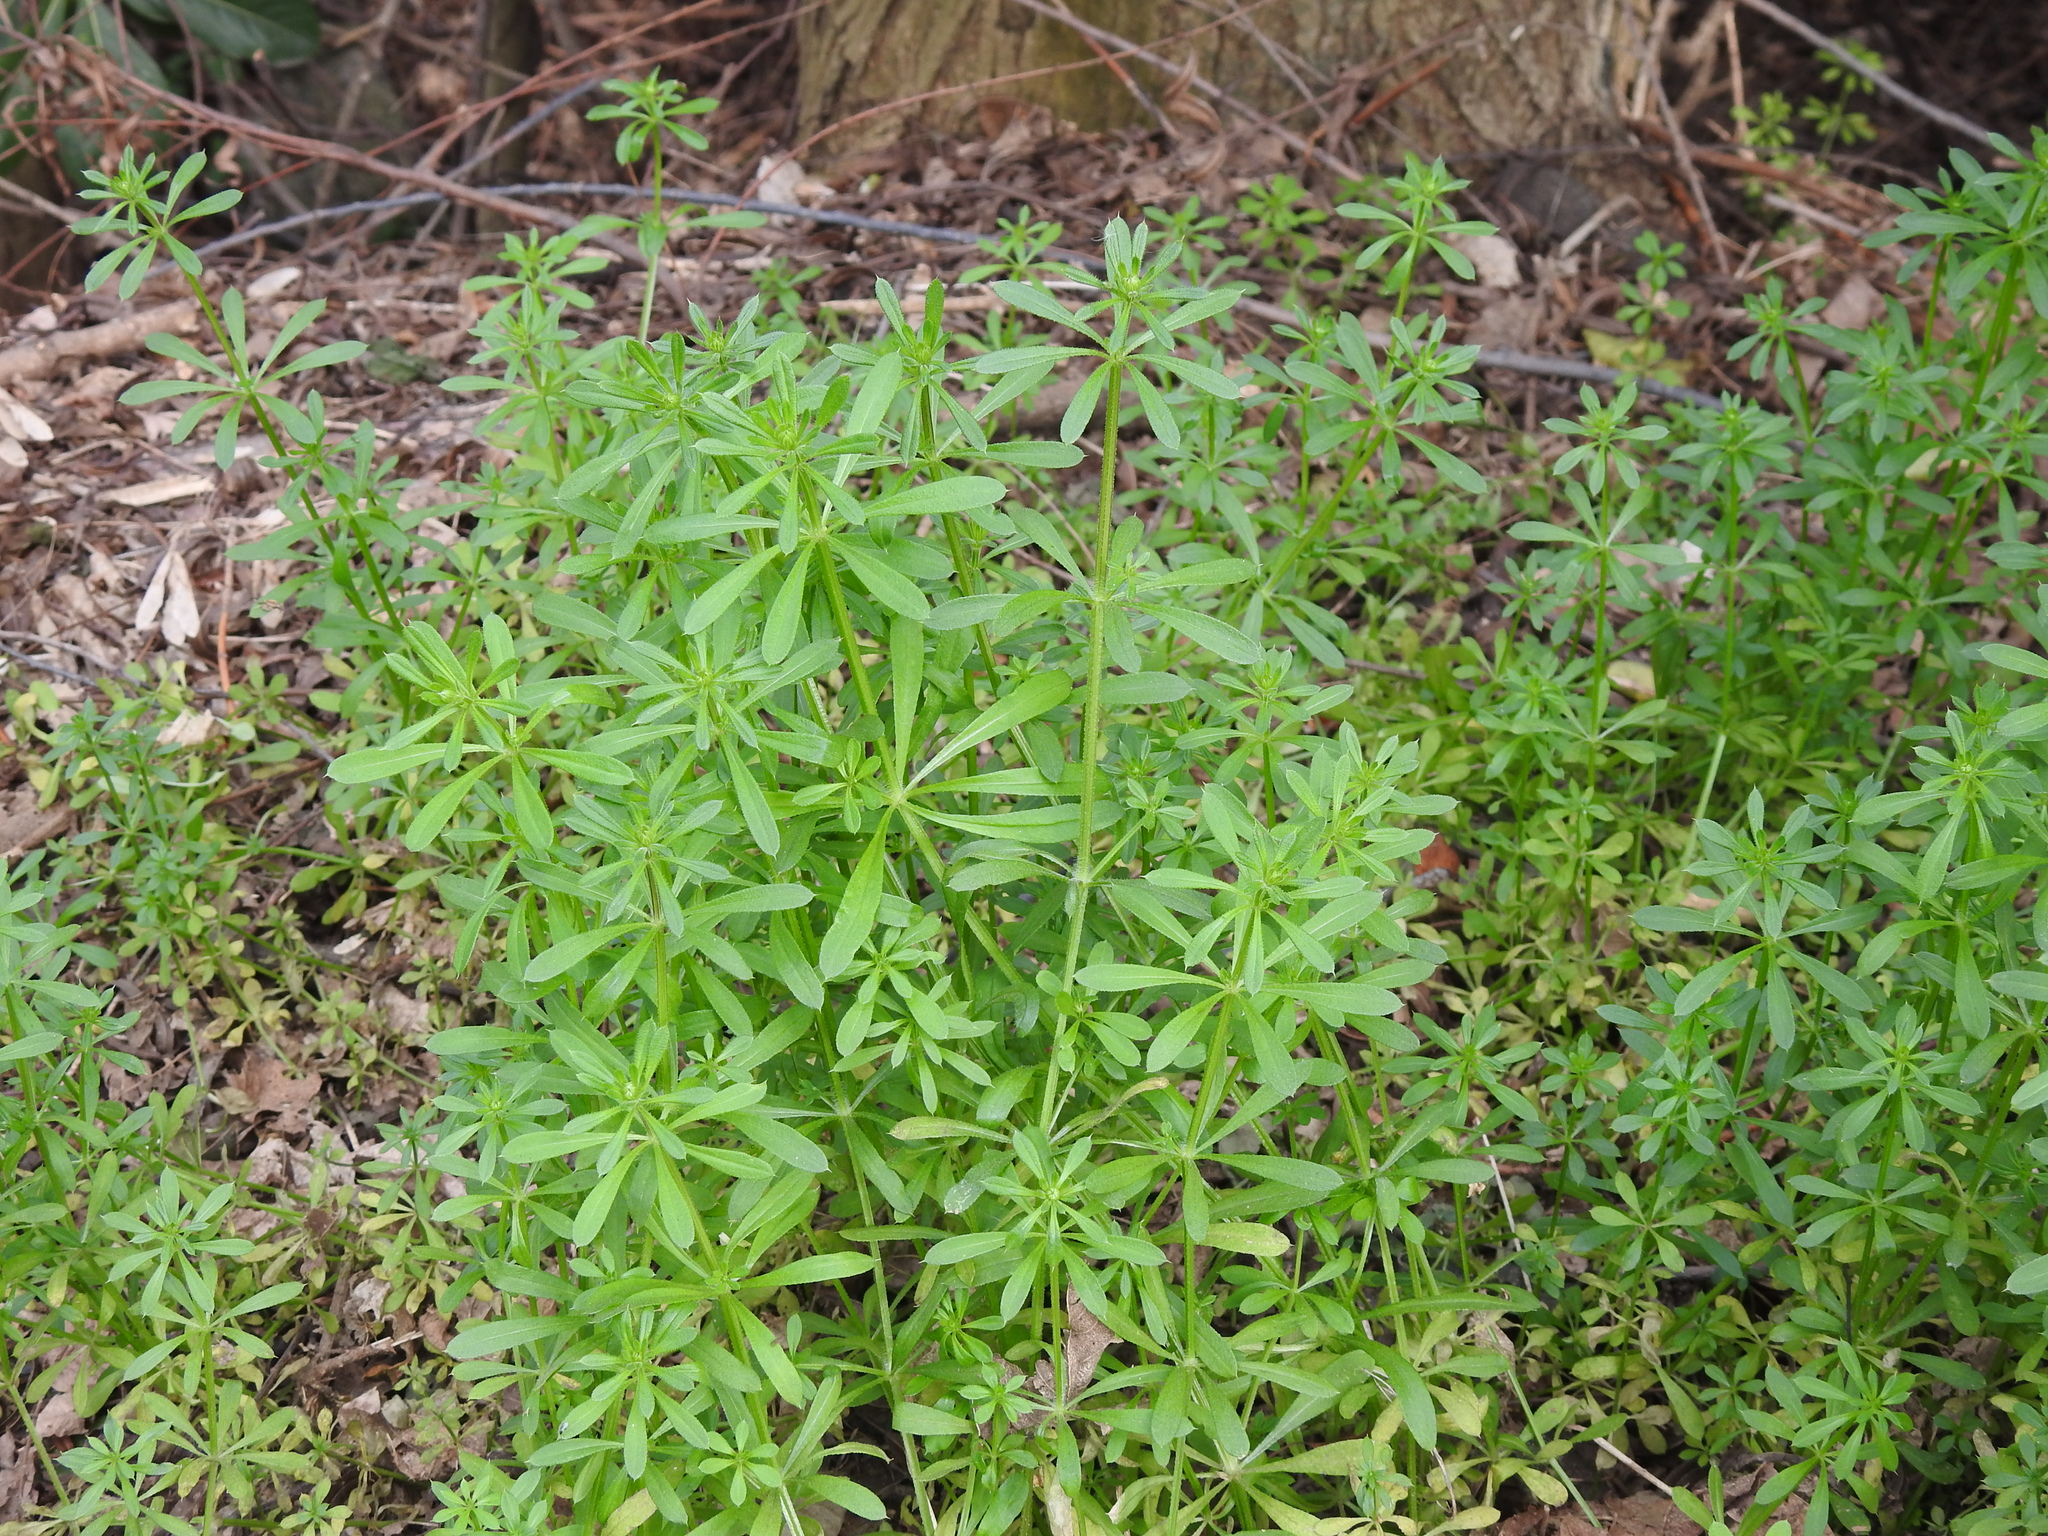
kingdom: Plantae
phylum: Tracheophyta
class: Magnoliopsida
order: Gentianales
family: Rubiaceae
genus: Galium
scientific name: Galium aparine
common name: Cleavers
